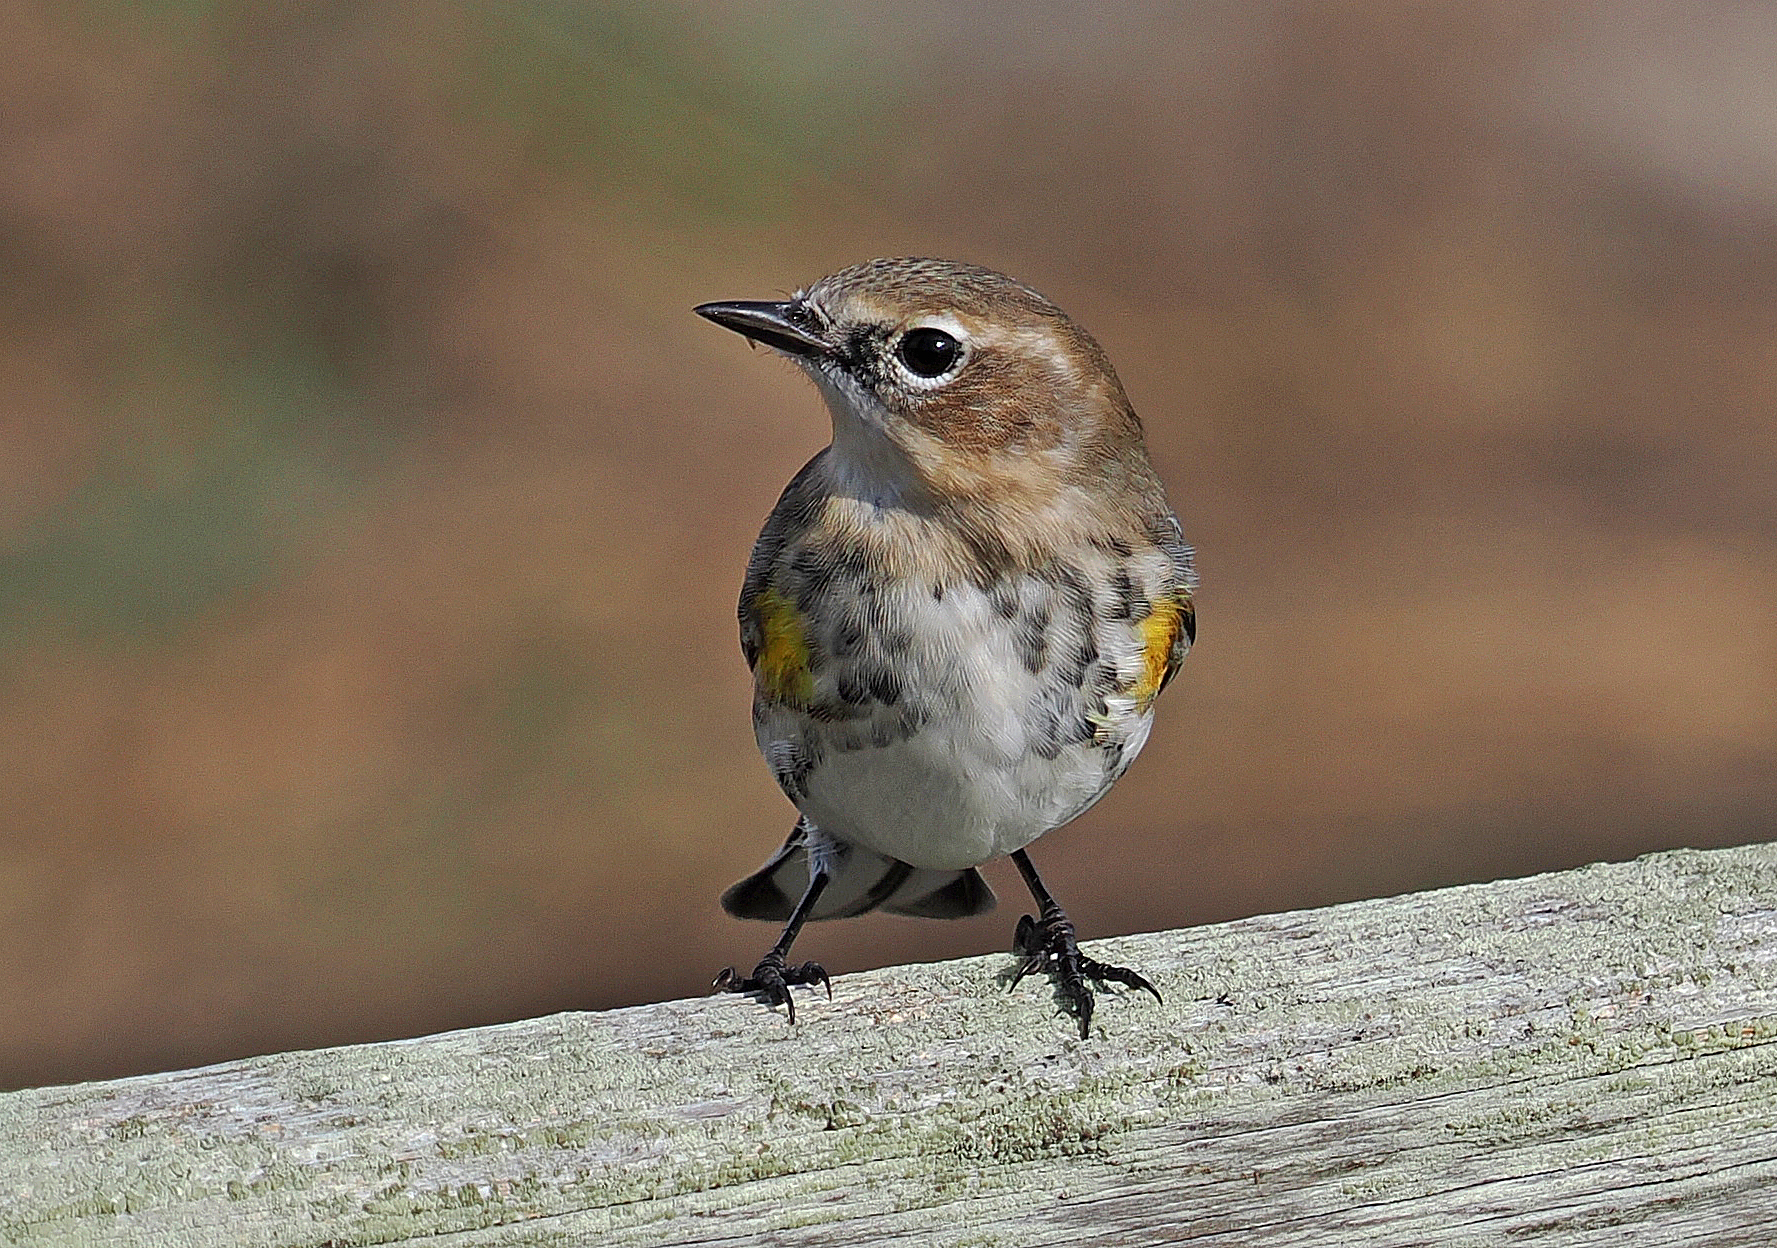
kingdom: Animalia
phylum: Chordata
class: Aves
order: Passeriformes
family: Parulidae
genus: Setophaga
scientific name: Setophaga coronata
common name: Myrtle warbler
